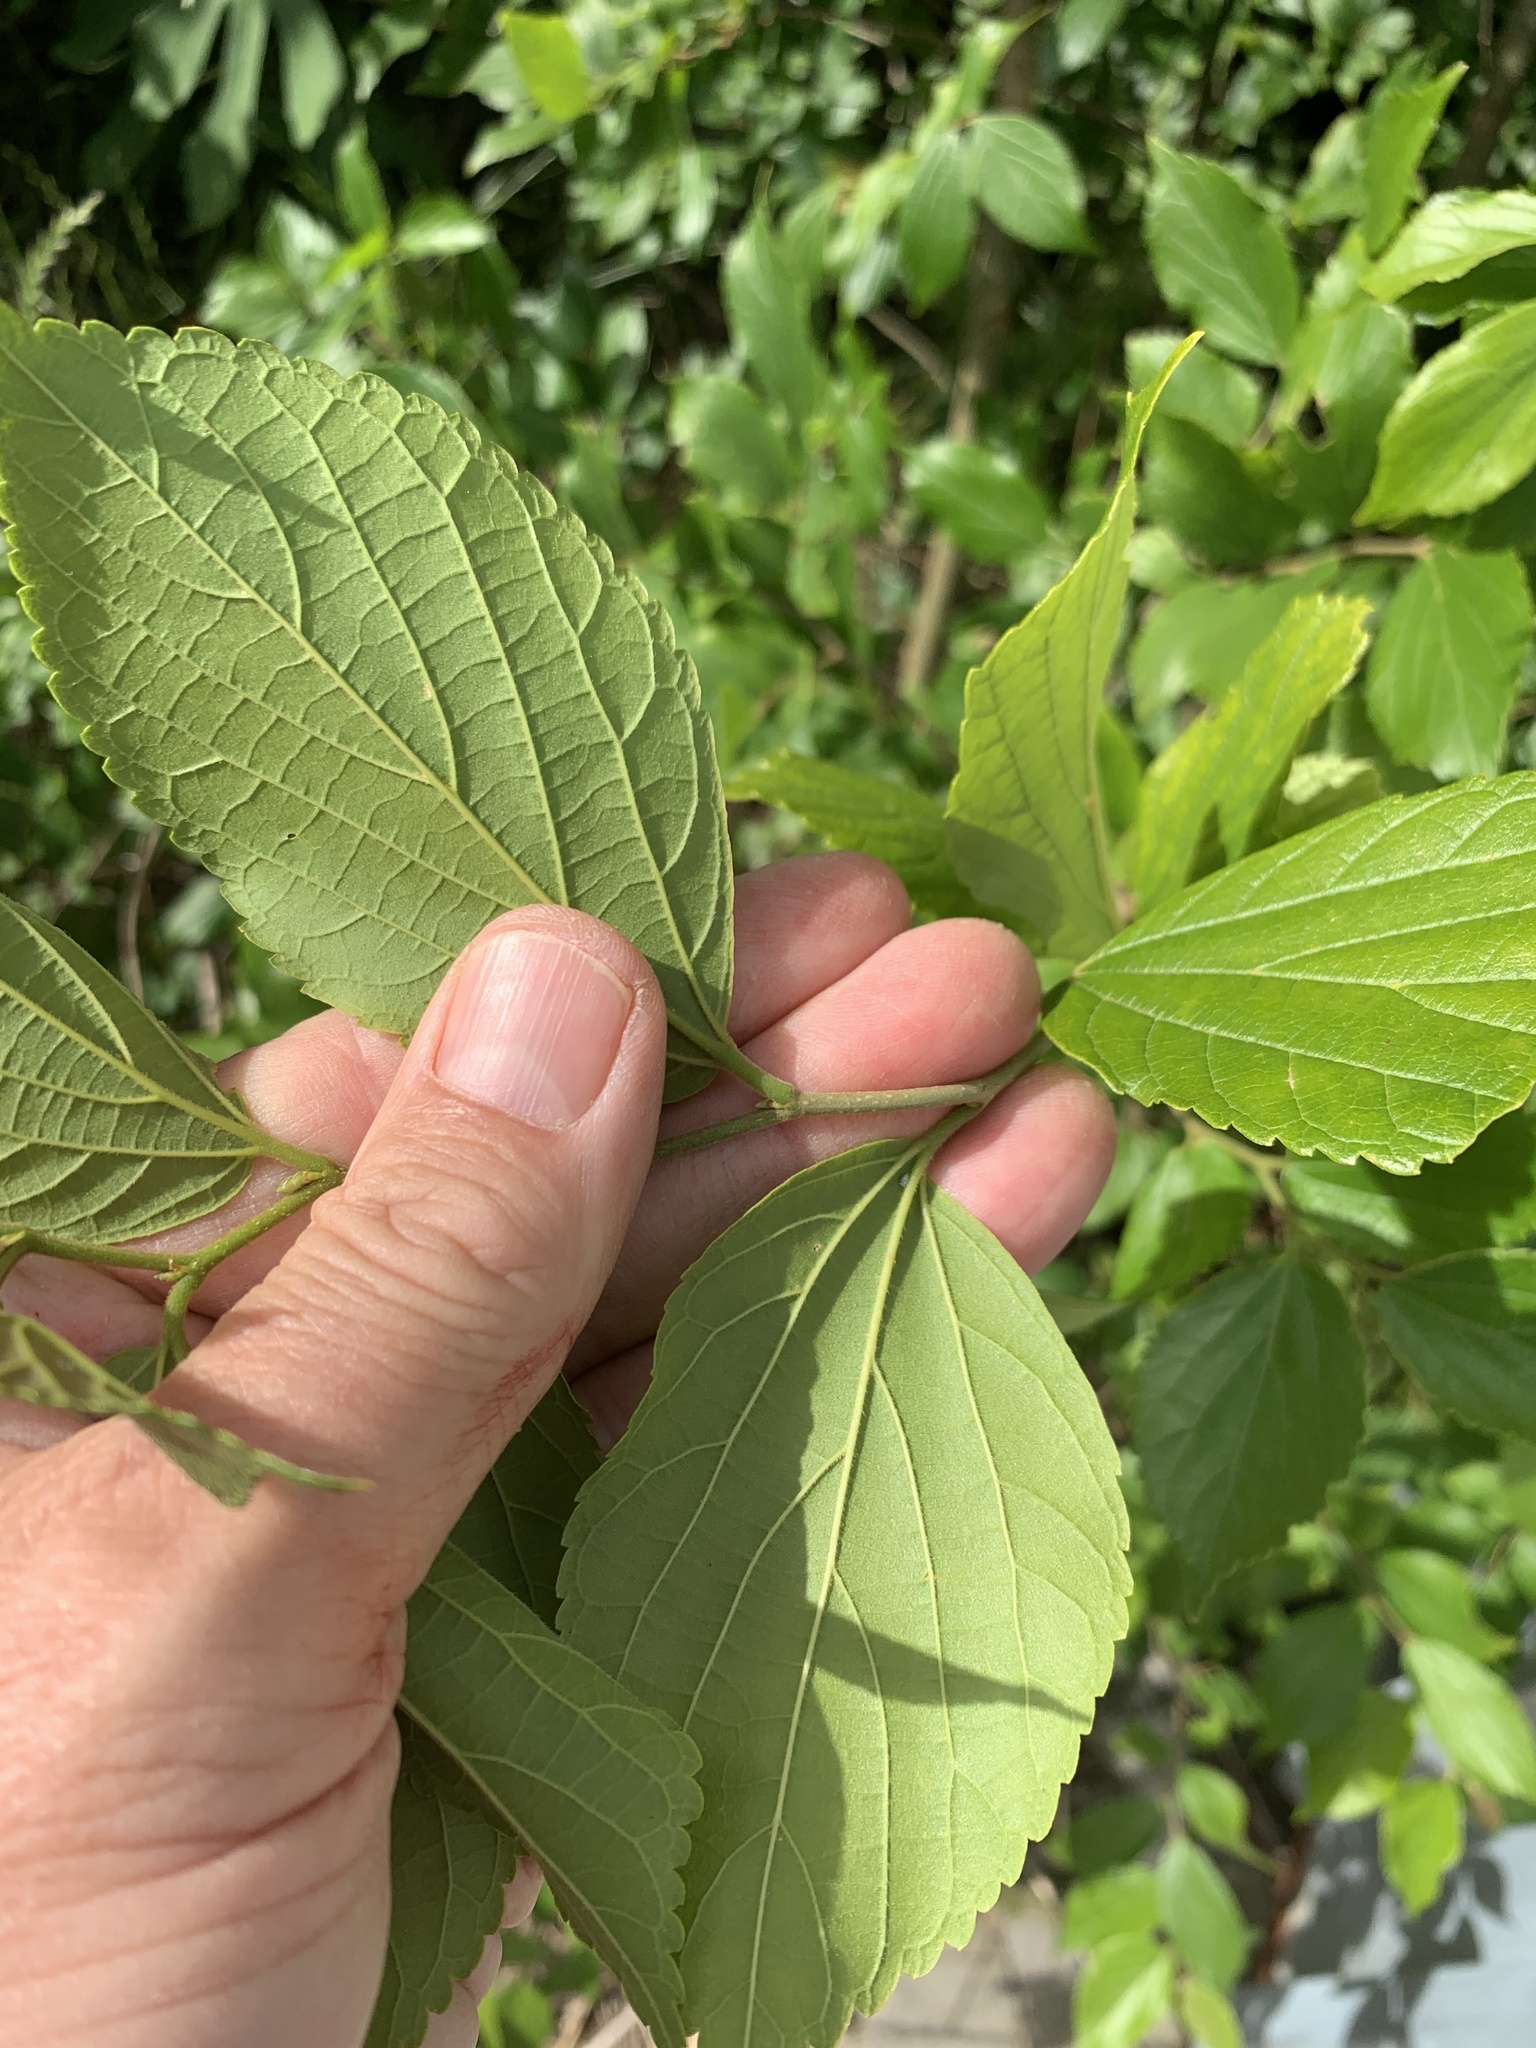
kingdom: Plantae
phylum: Tracheophyta
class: Magnoliopsida
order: Rosales
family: Cannabaceae
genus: Celtis
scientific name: Celtis sinensis
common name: Chinese hackberry
